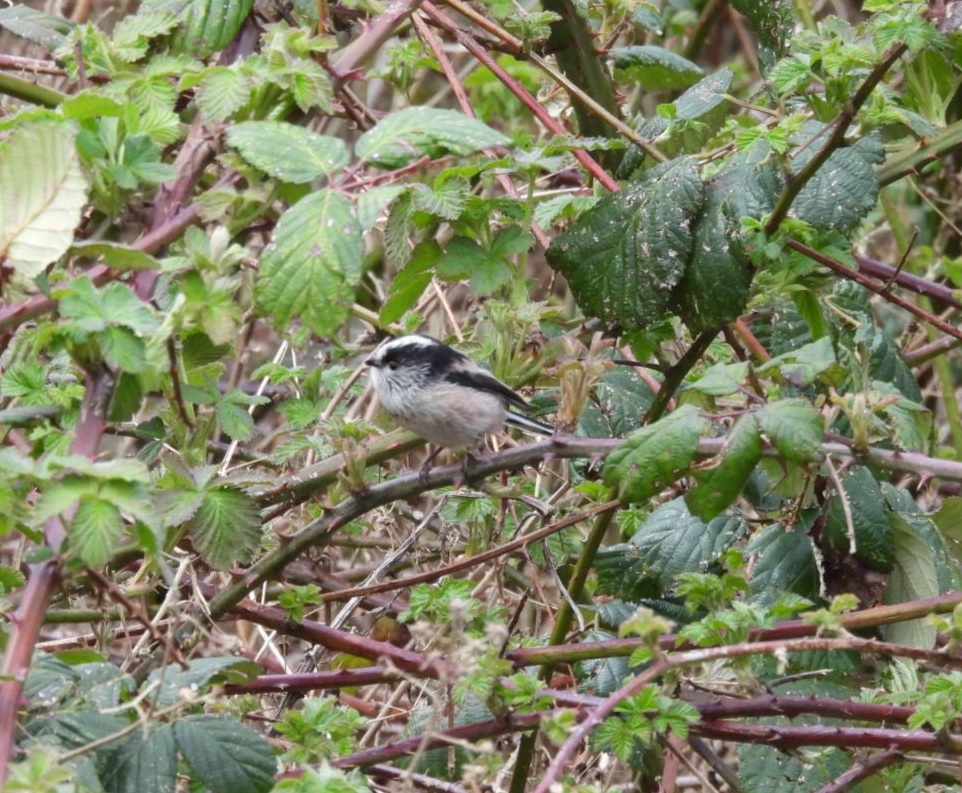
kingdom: Animalia
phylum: Chordata
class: Aves
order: Passeriformes
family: Aegithalidae
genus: Aegithalos
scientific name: Aegithalos caudatus
